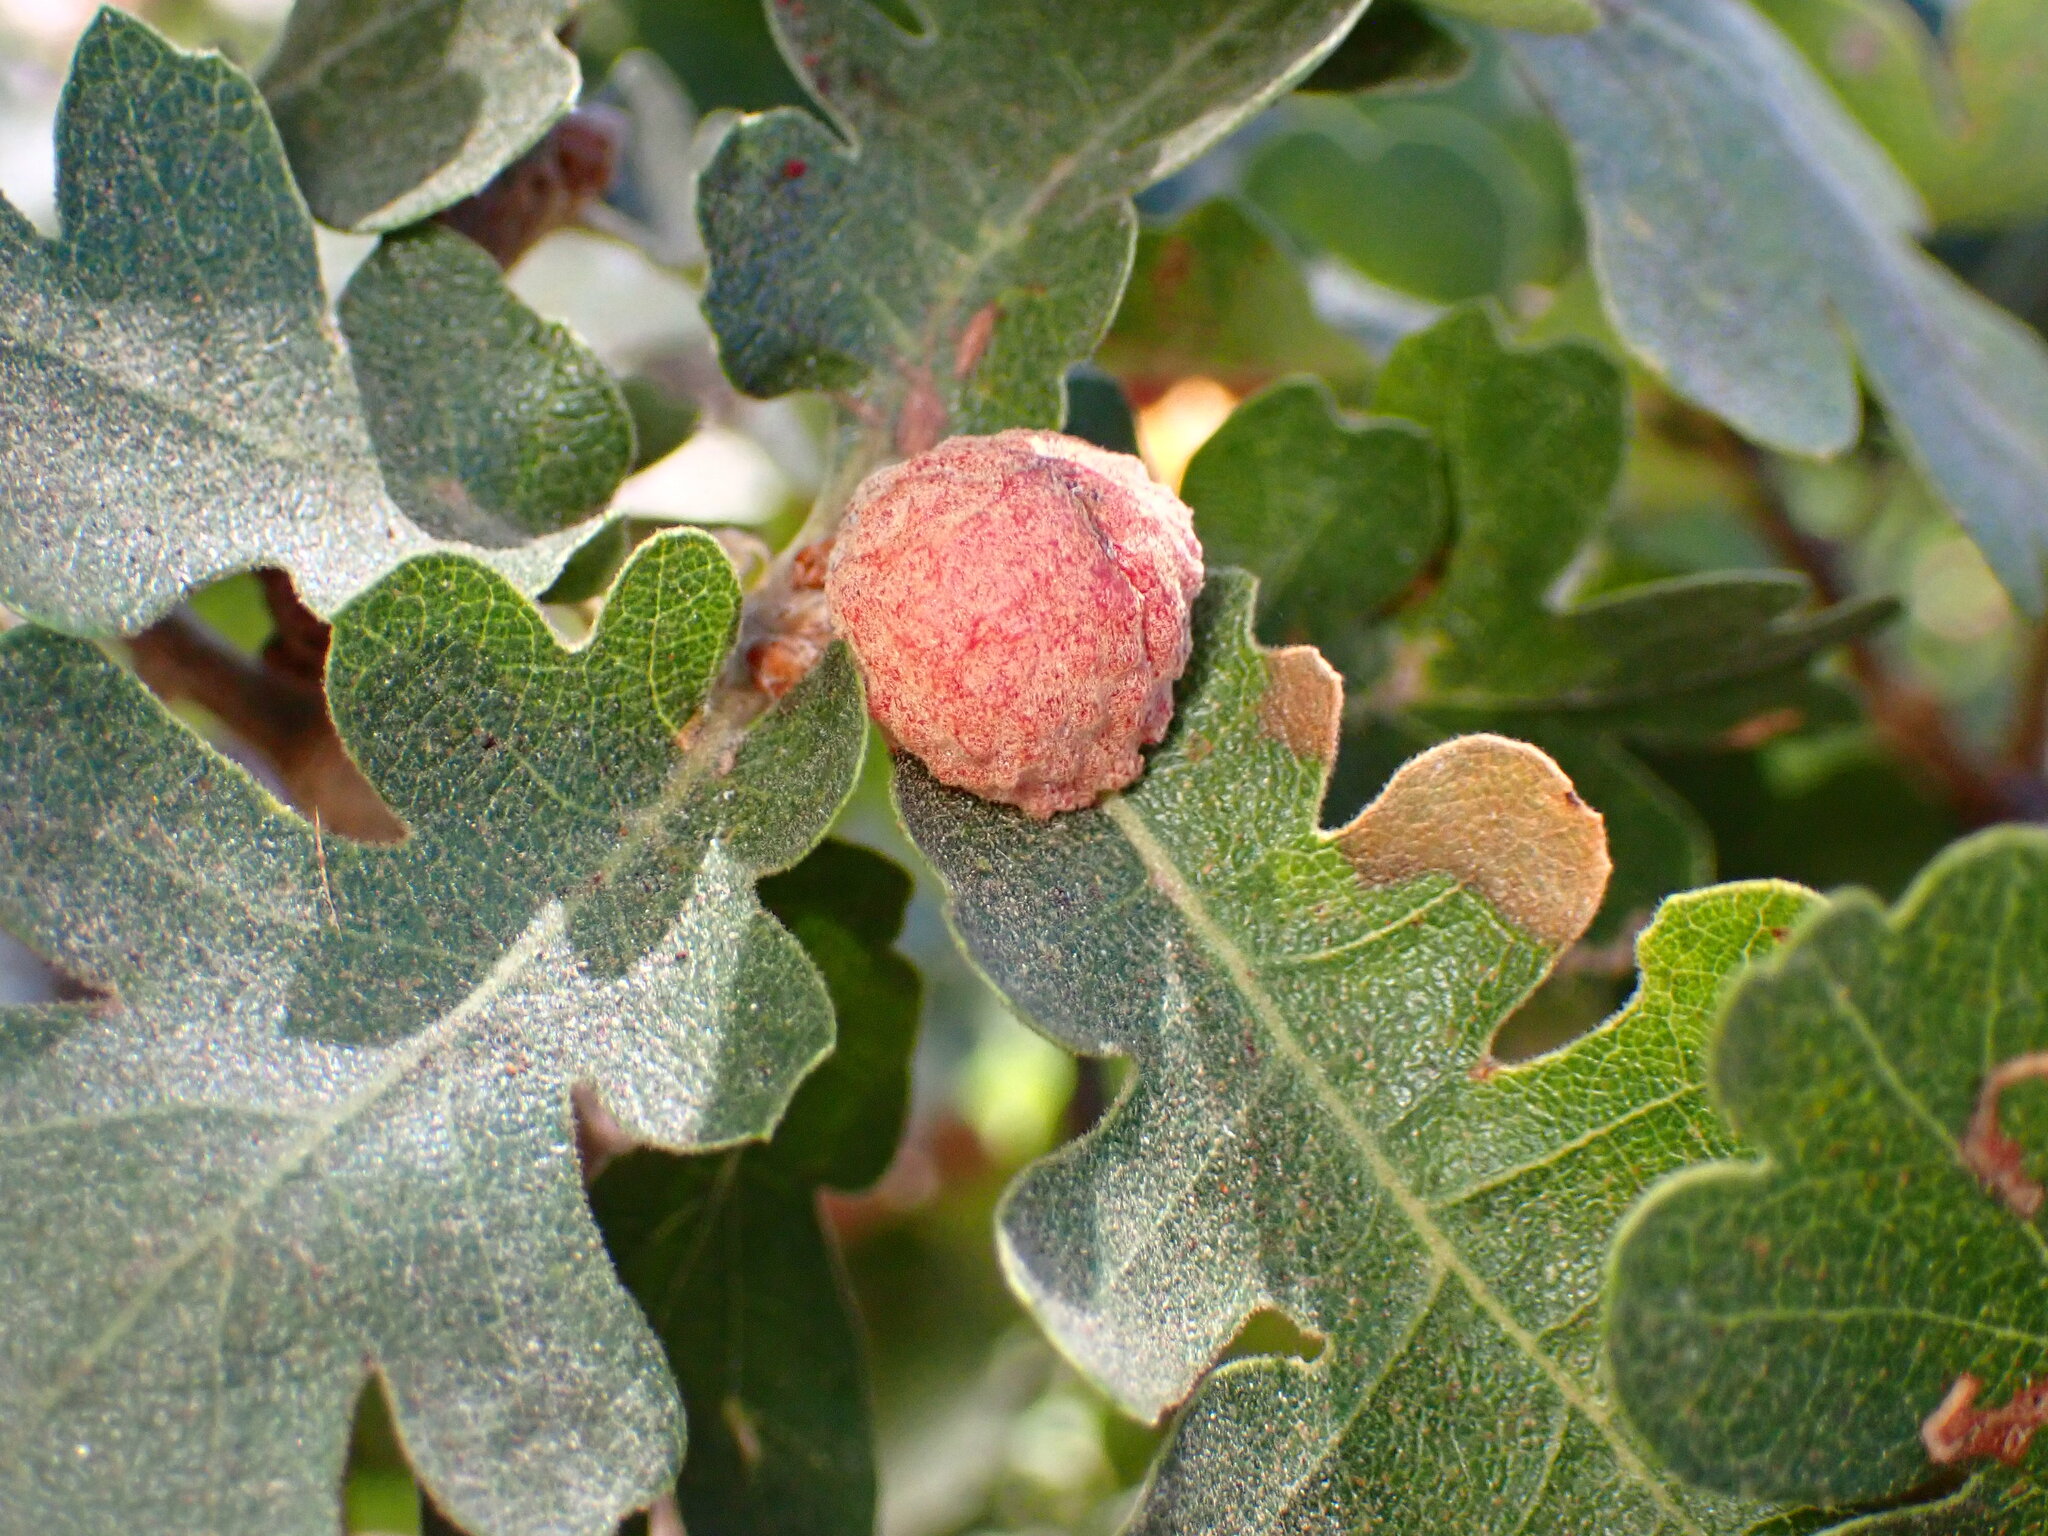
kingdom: Animalia
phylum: Arthropoda
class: Insecta
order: Hymenoptera
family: Cynipidae
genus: Cynips
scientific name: Cynips conspicua
